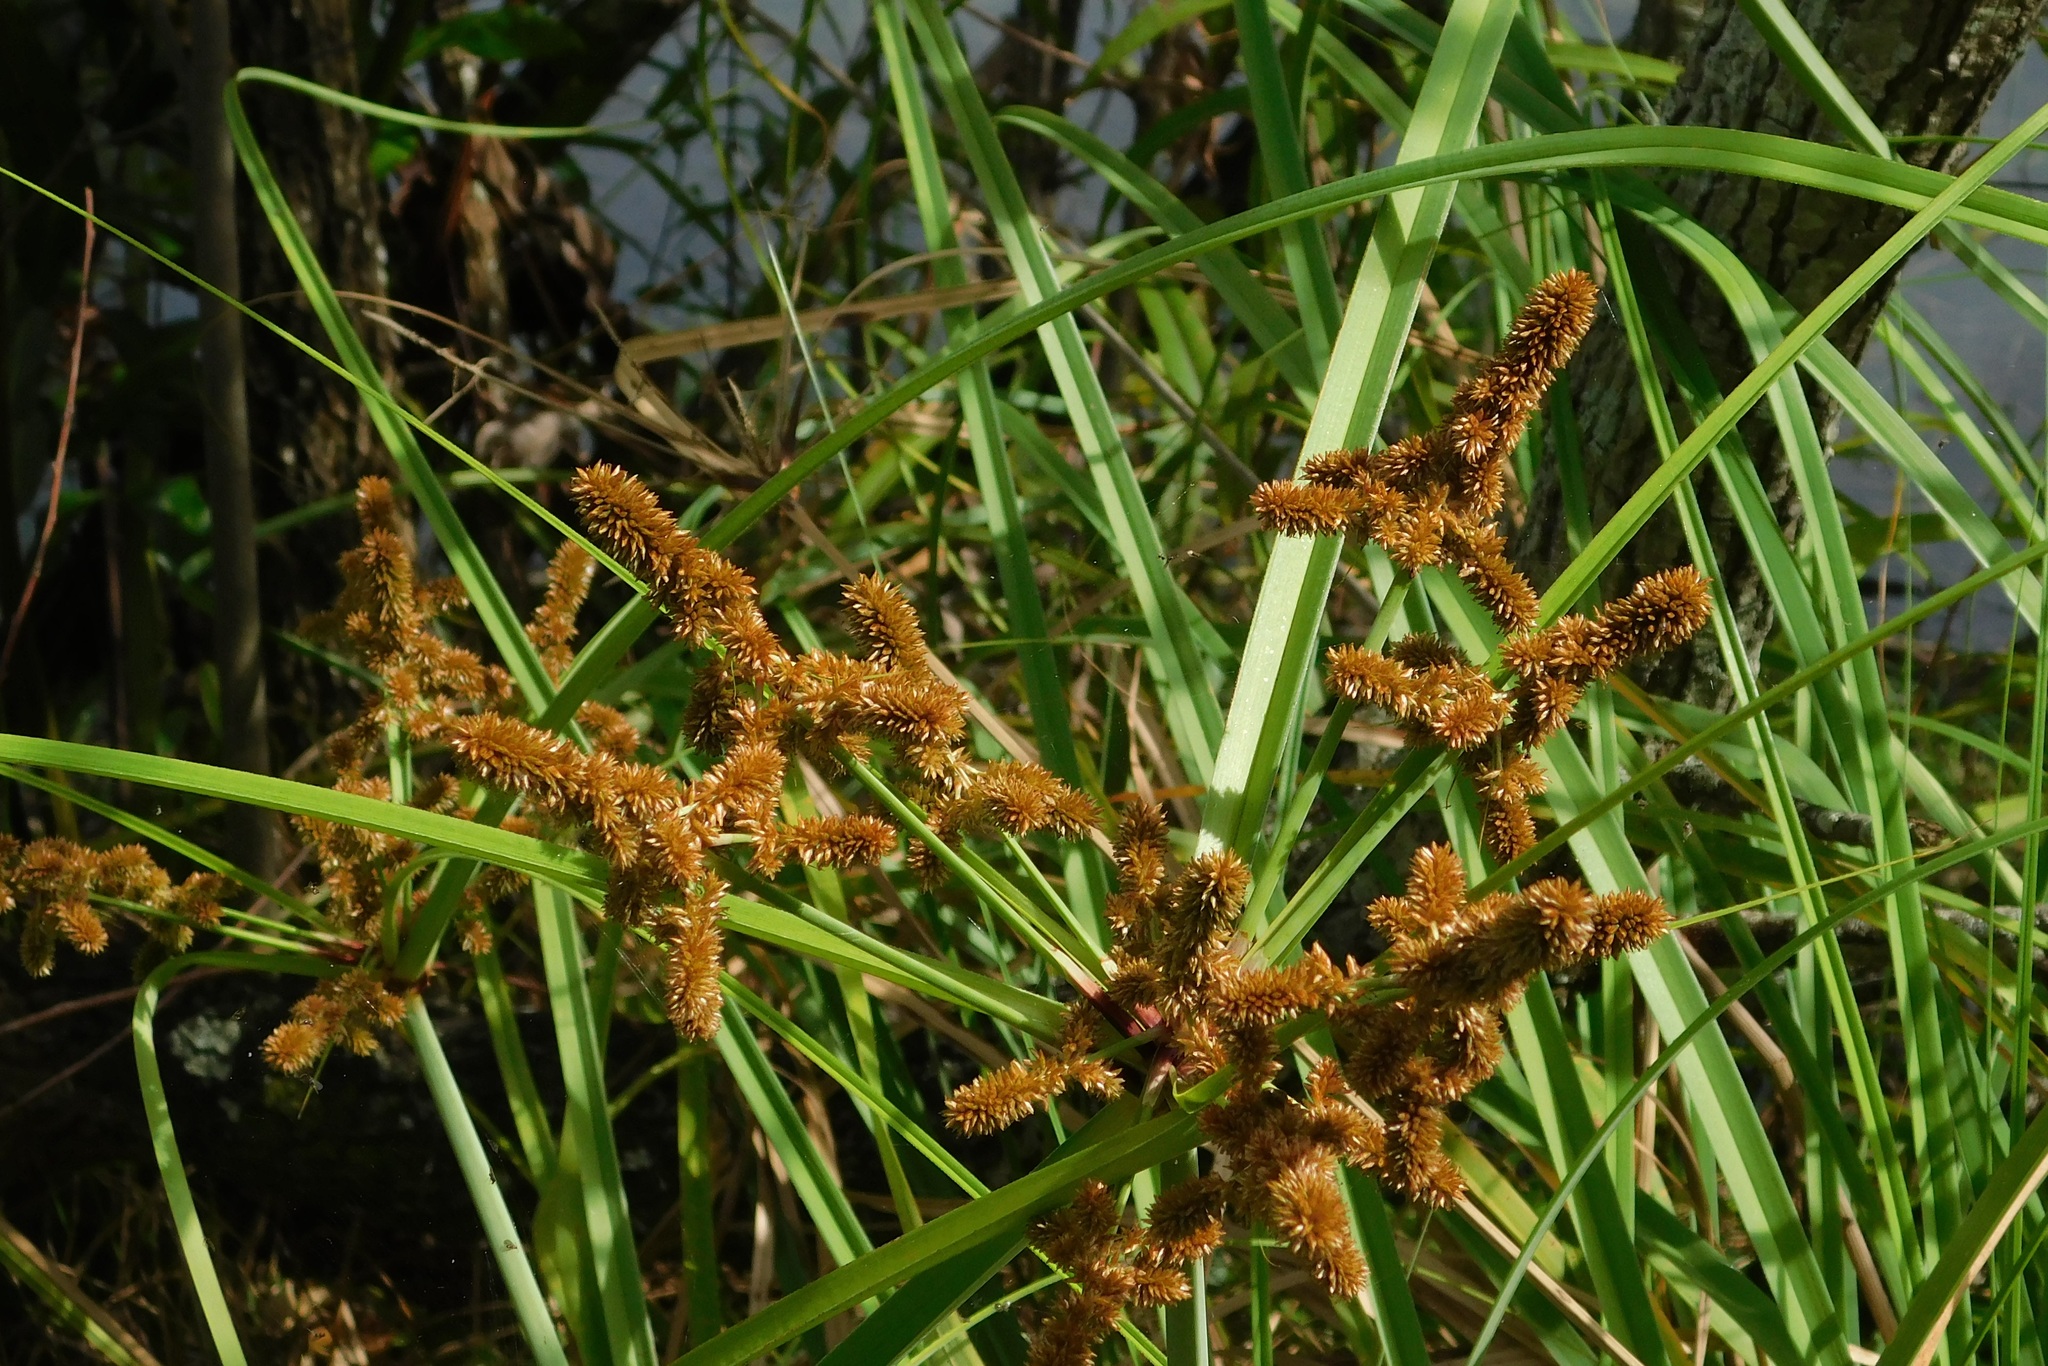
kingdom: Plantae
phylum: Tracheophyta
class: Liliopsida
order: Poales
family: Cyperaceae
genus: Cyperus
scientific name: Cyperus ligularis
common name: Swamp flat sedge
